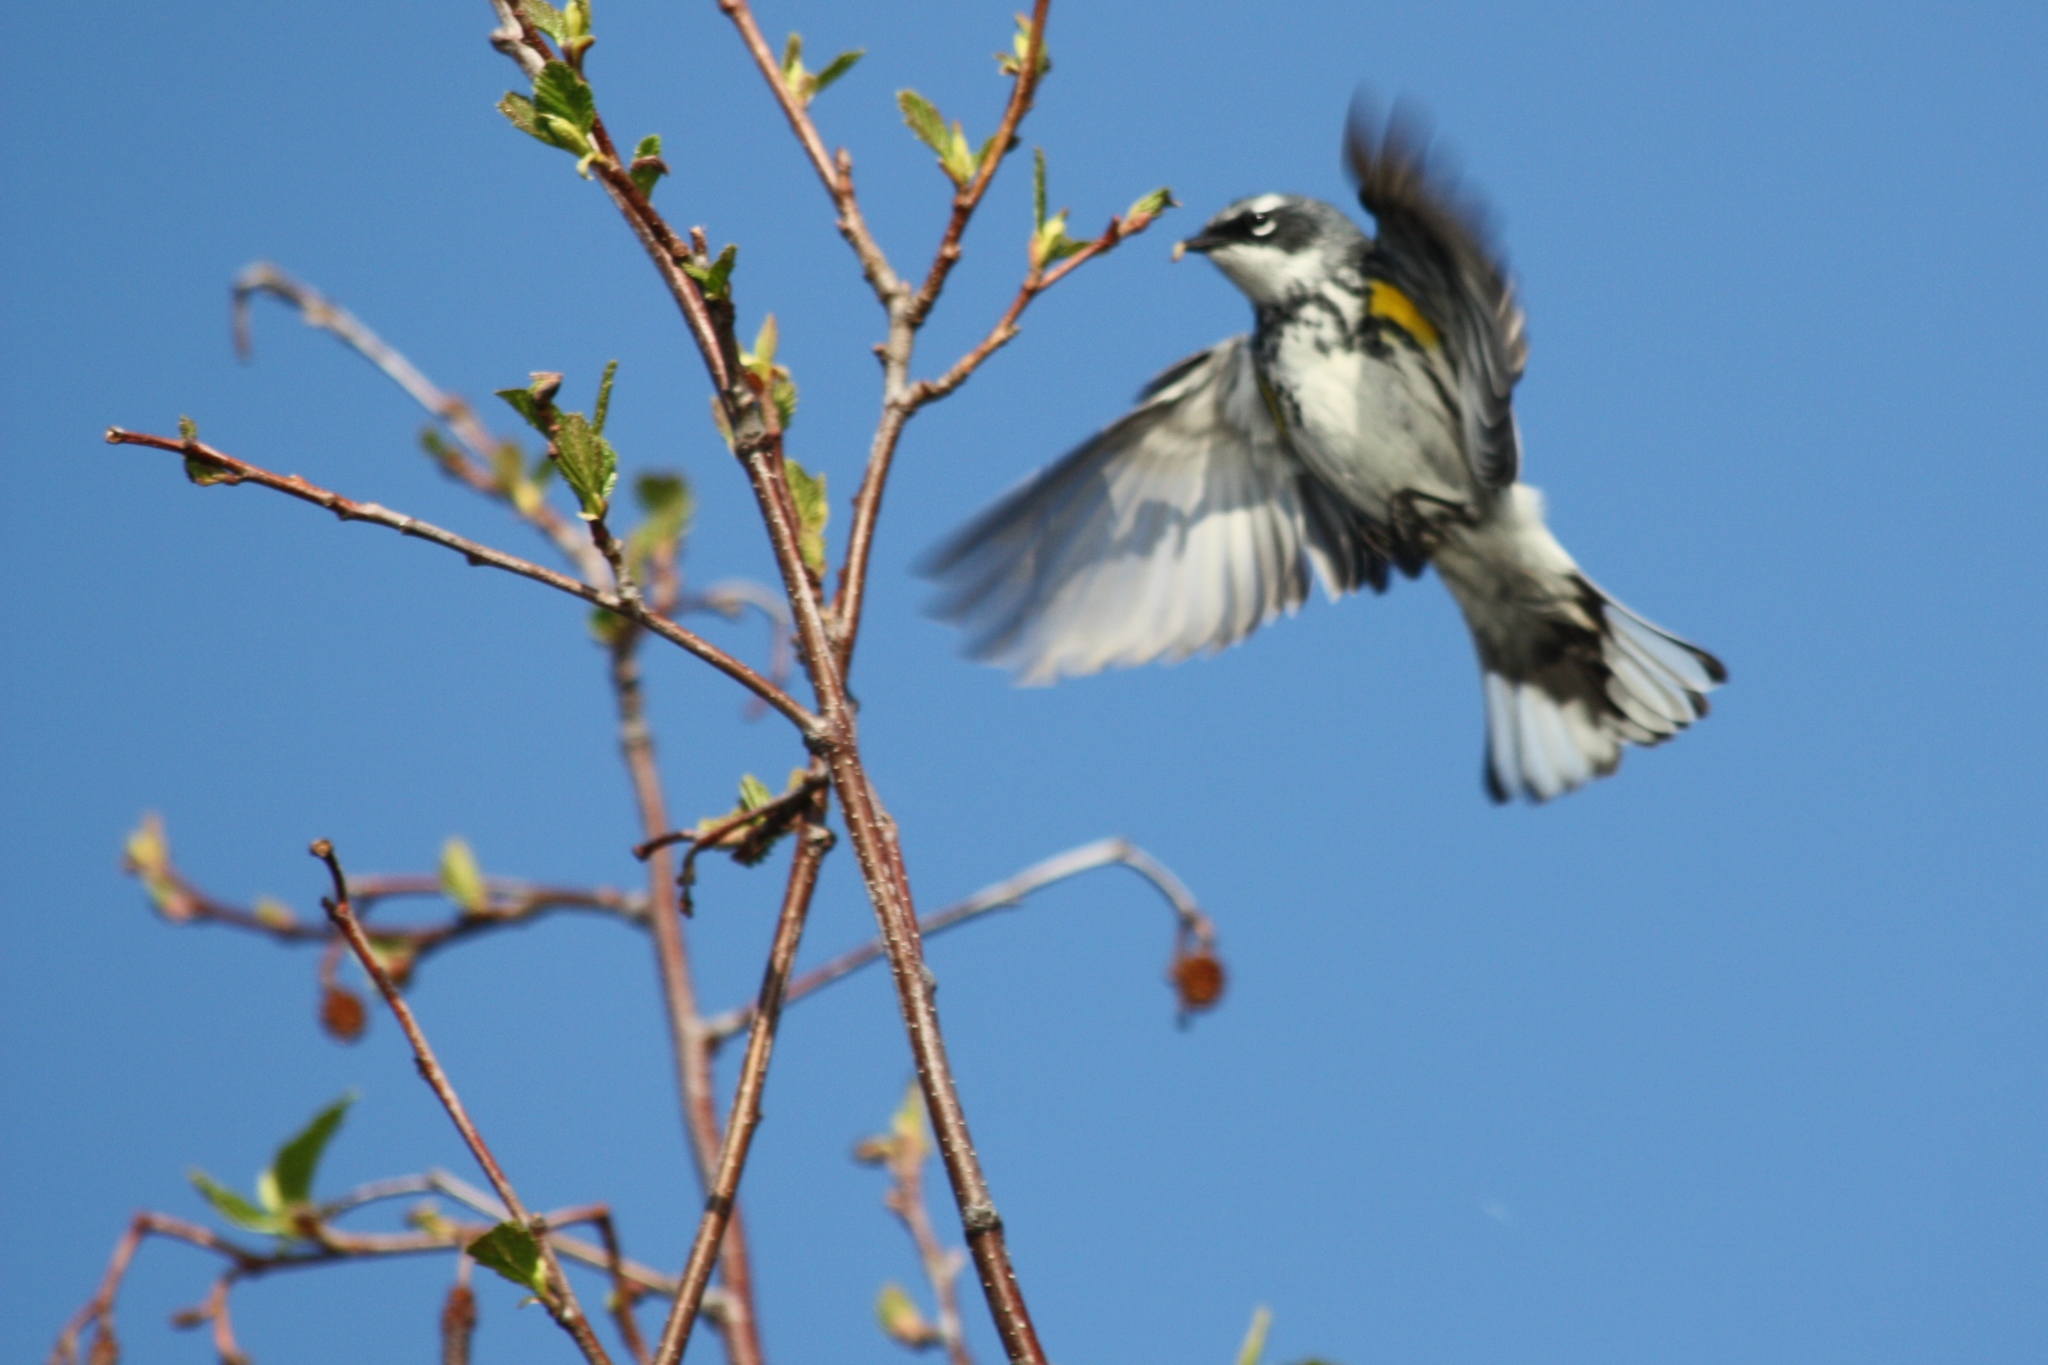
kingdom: Animalia
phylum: Chordata
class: Aves
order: Passeriformes
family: Parulidae
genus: Setophaga
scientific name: Setophaga coronata
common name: Myrtle warbler
